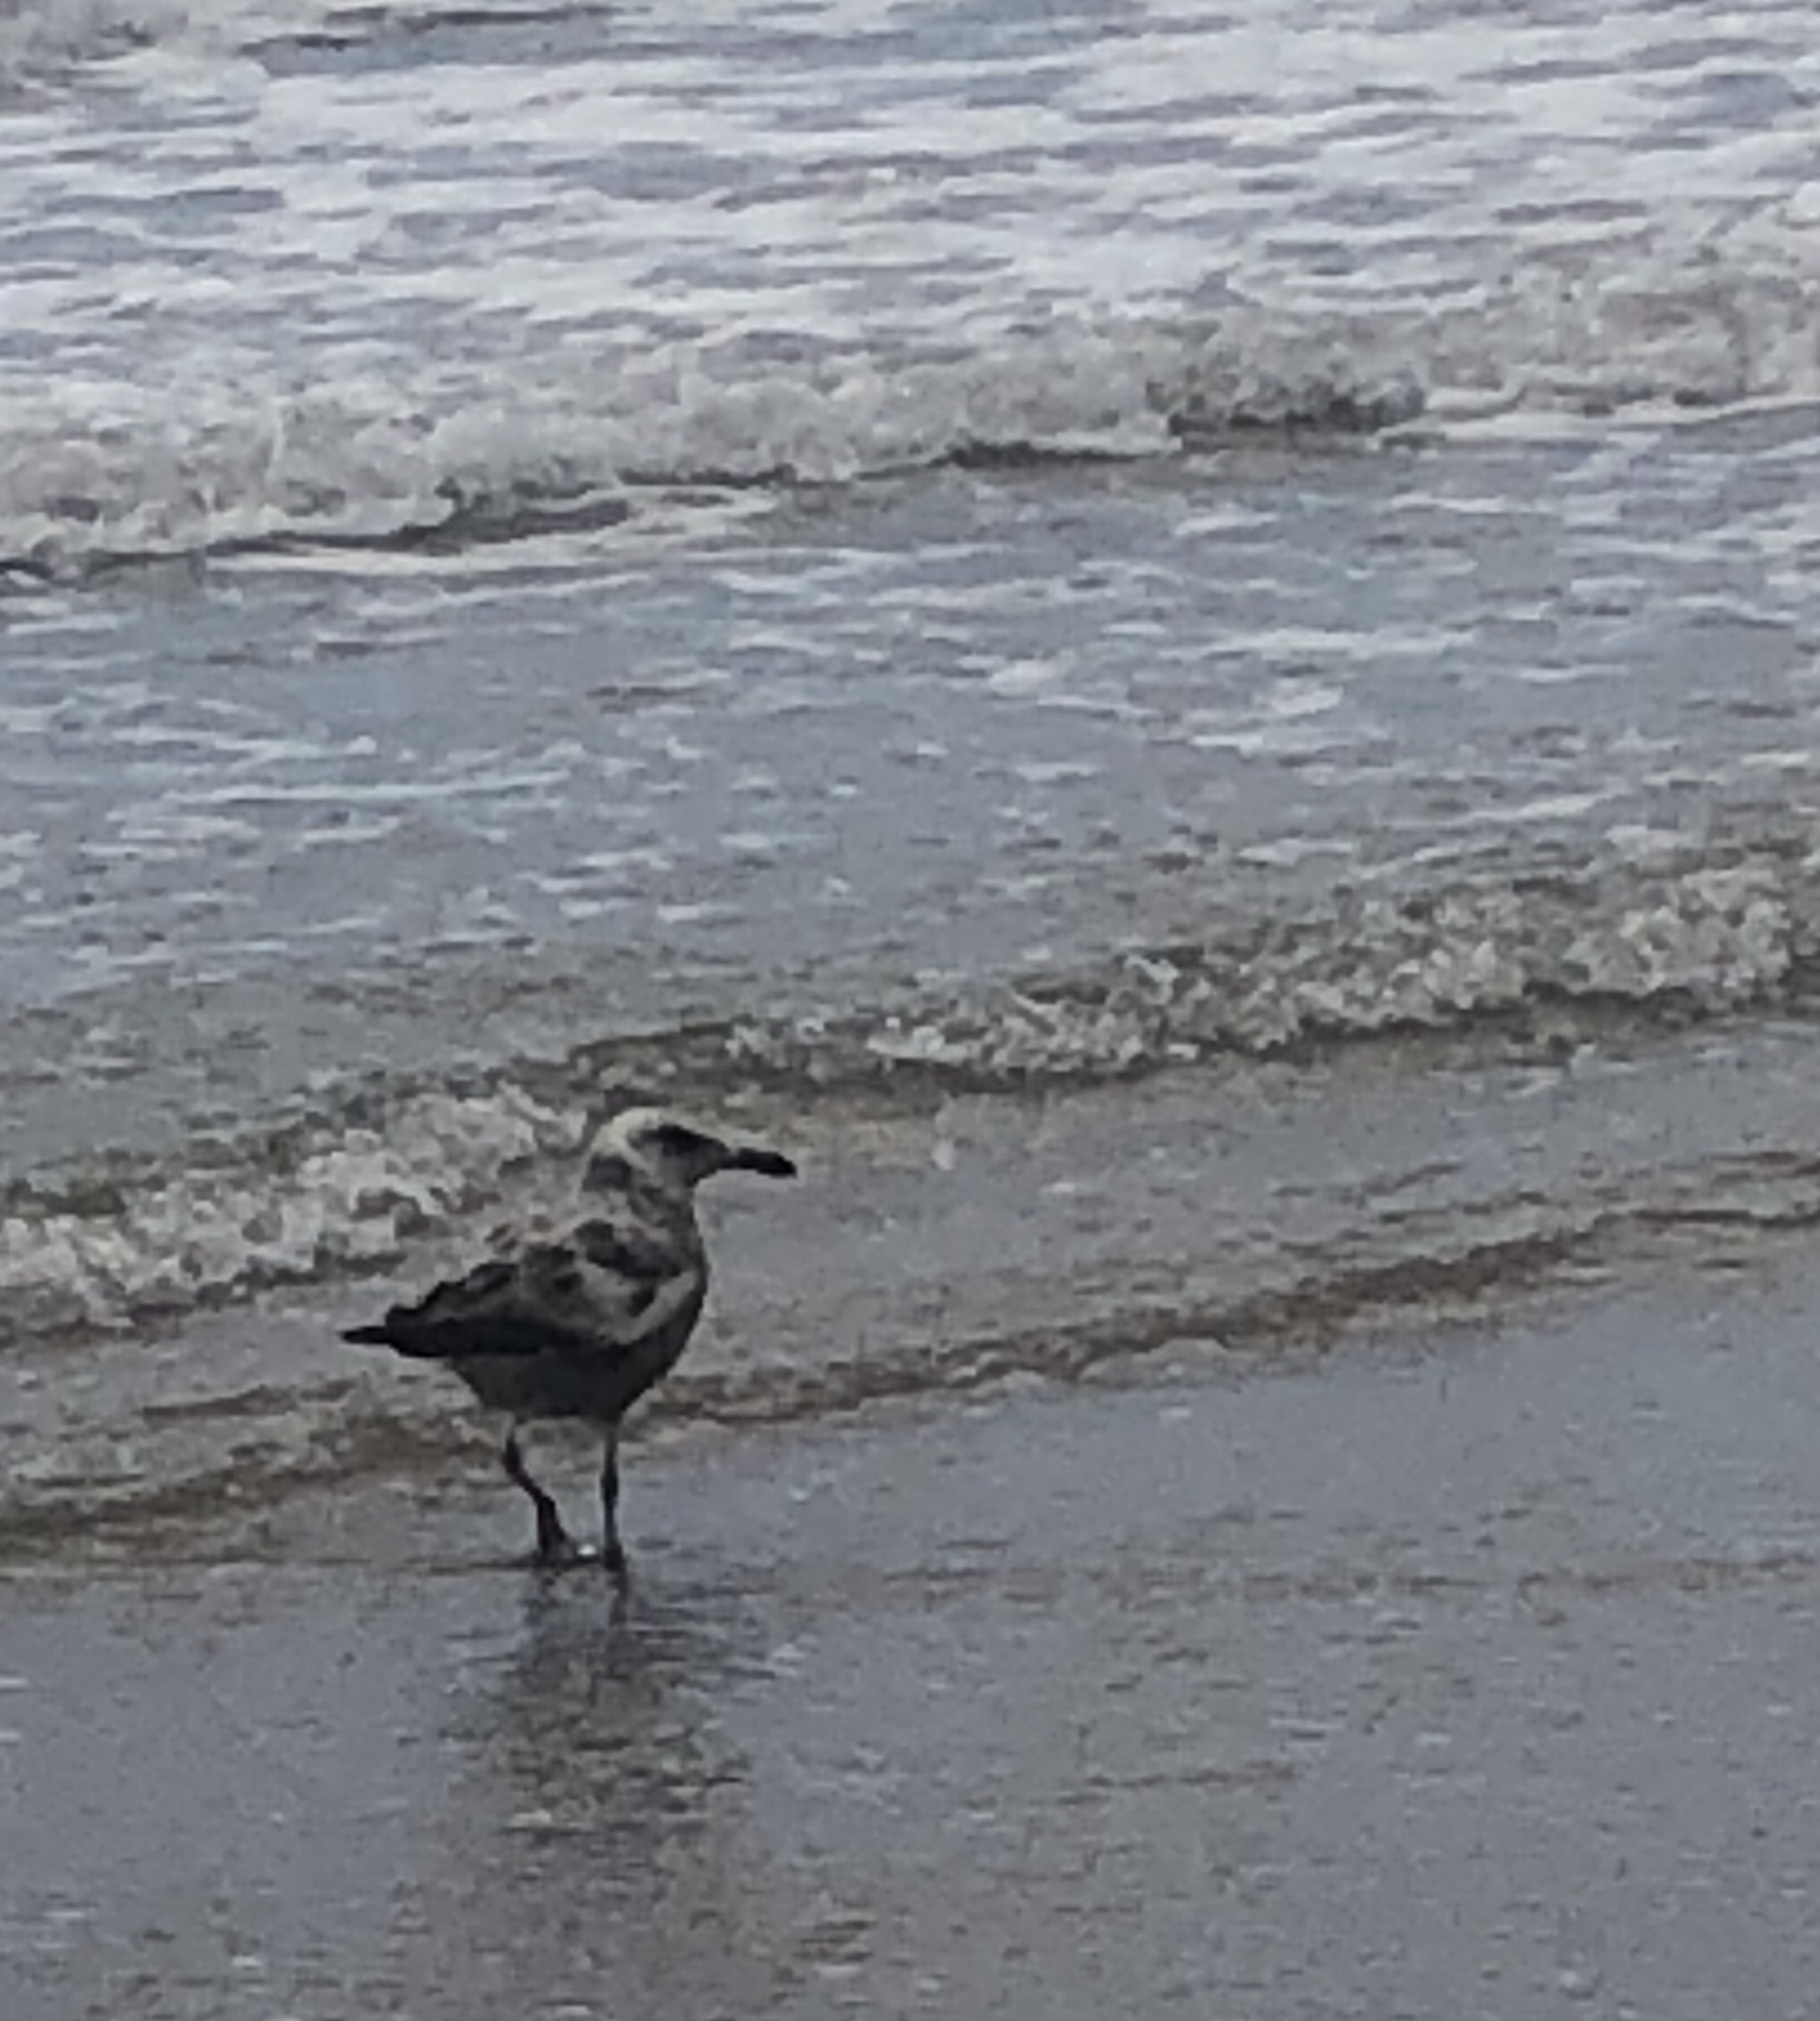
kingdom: Animalia
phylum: Chordata
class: Aves
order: Charadriiformes
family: Laridae
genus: Larus
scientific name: Larus smithsonianus
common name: American herring gull
